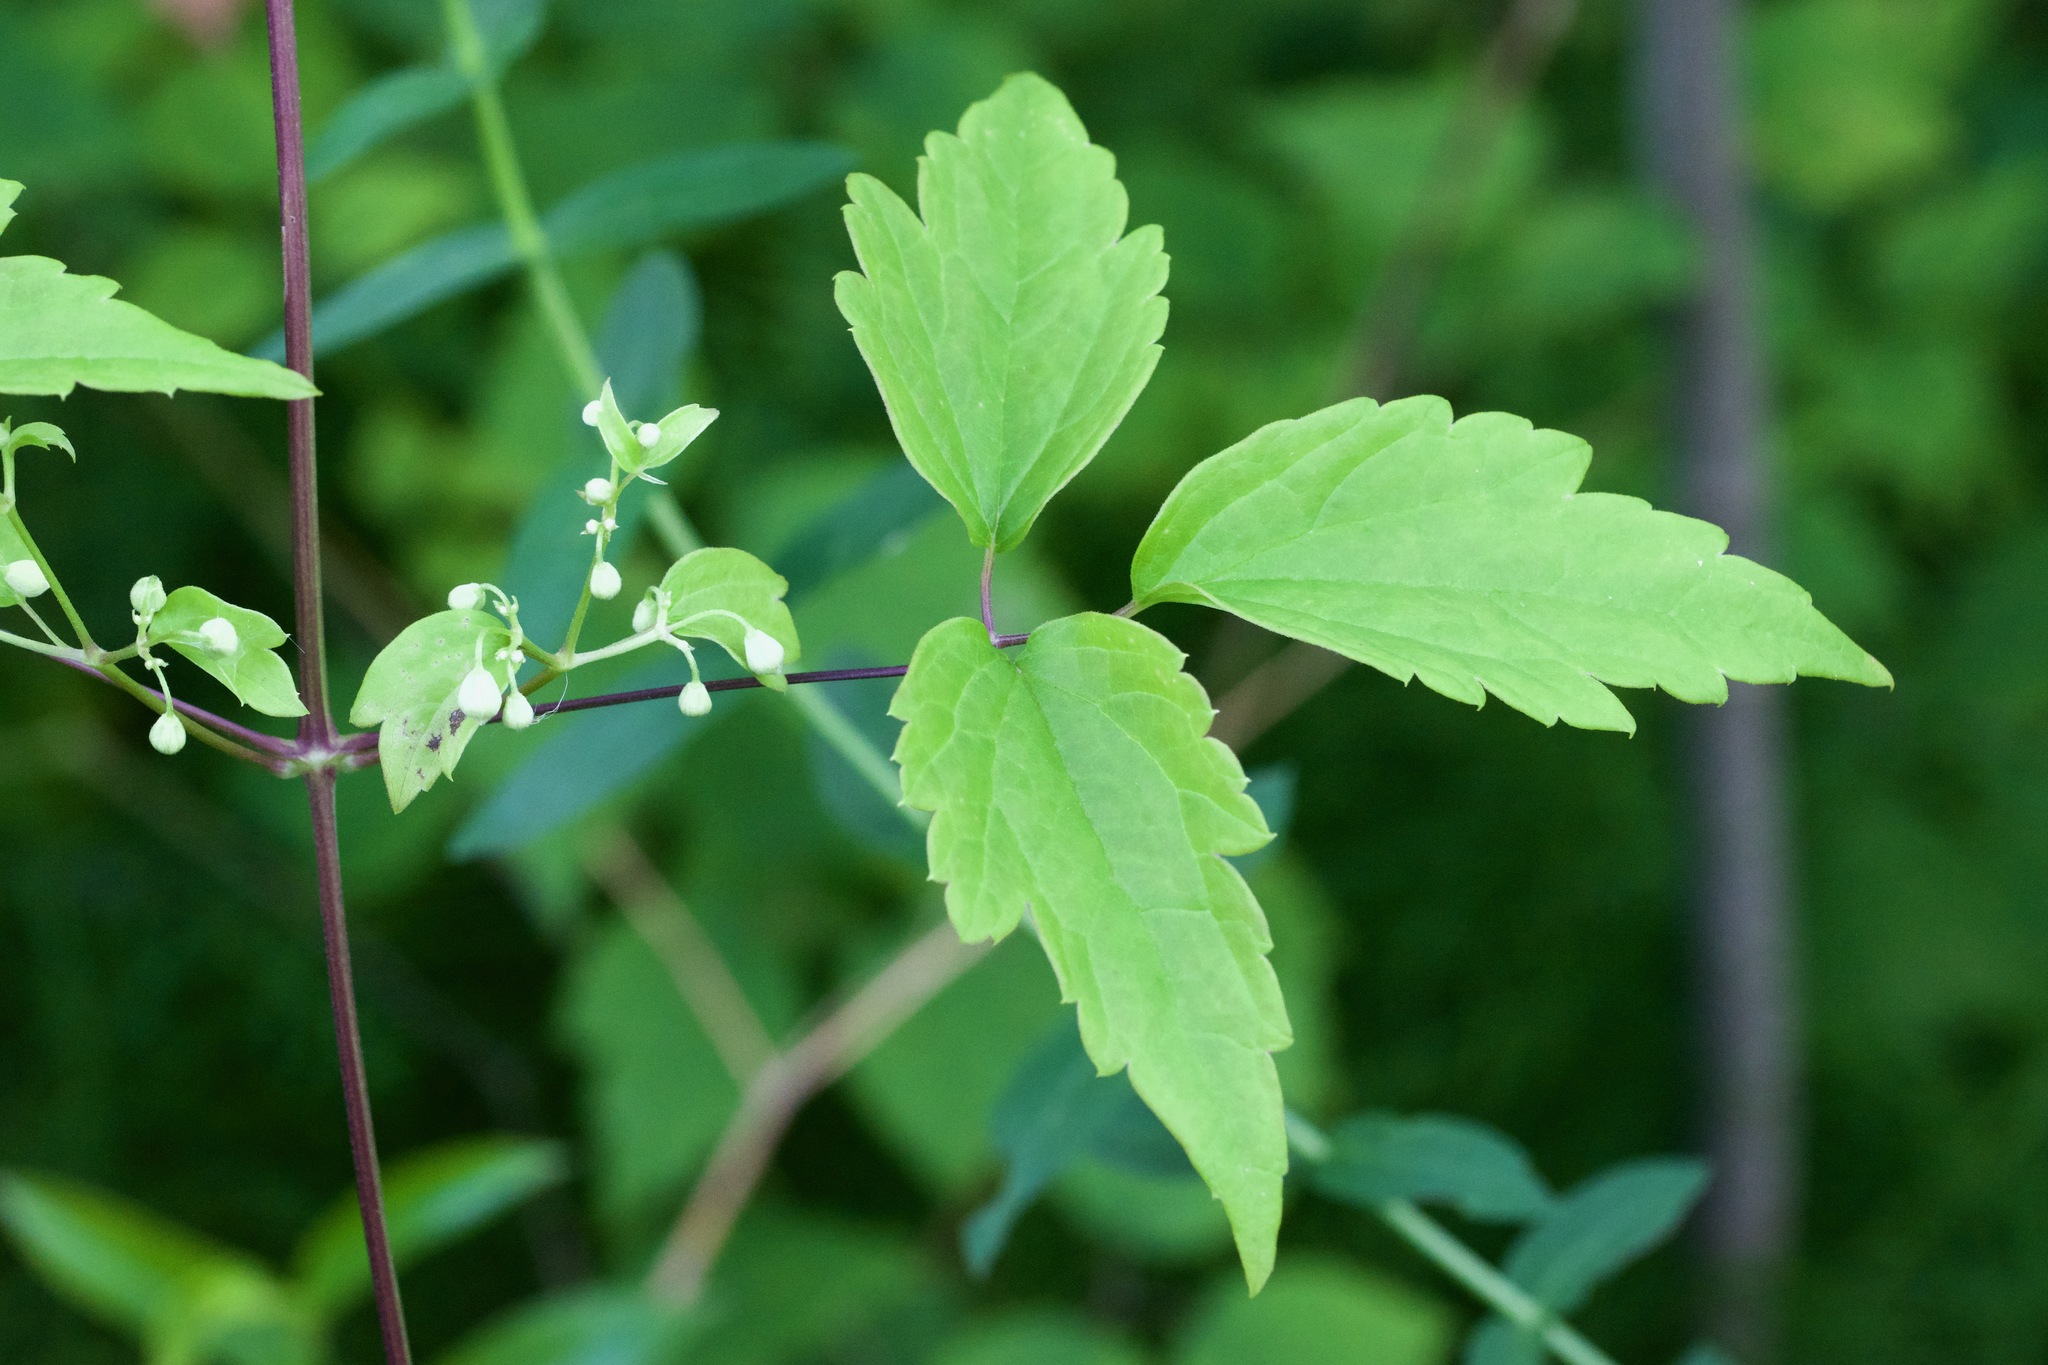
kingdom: Plantae
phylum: Tracheophyta
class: Magnoliopsida
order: Ranunculales
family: Ranunculaceae
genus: Clematis
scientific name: Clematis virginiana
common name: Virgin's-bower
